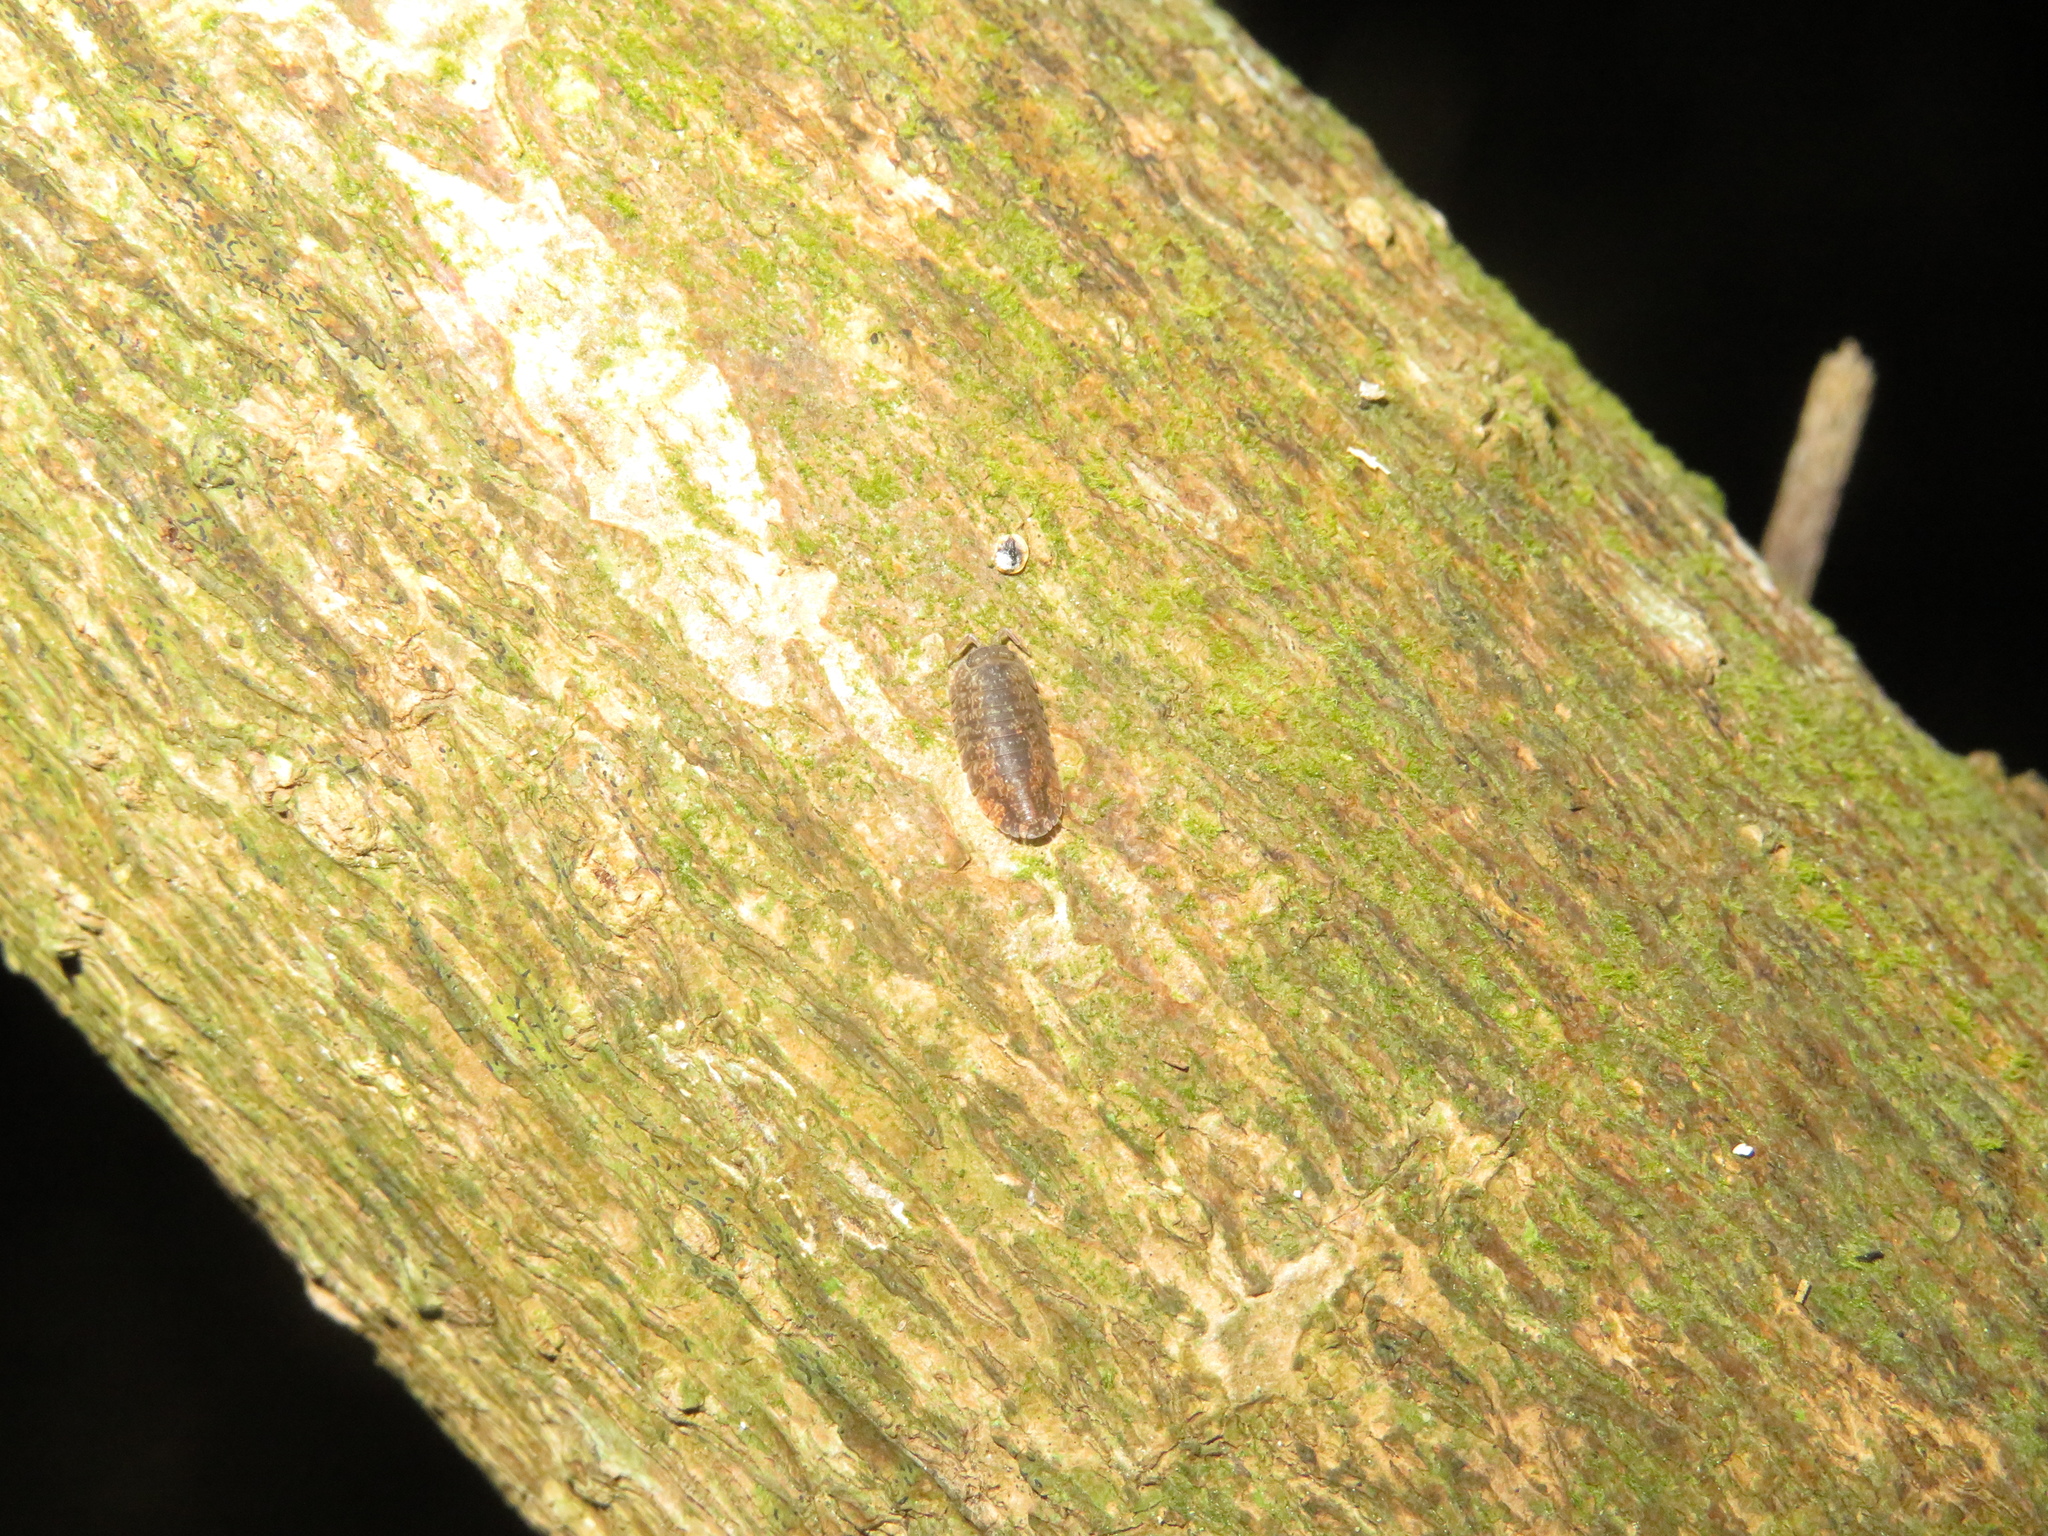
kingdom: Animalia
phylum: Arthropoda
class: Malacostraca
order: Isopoda
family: Armadillidae
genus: Cubaris
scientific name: Cubaris tarangensis
